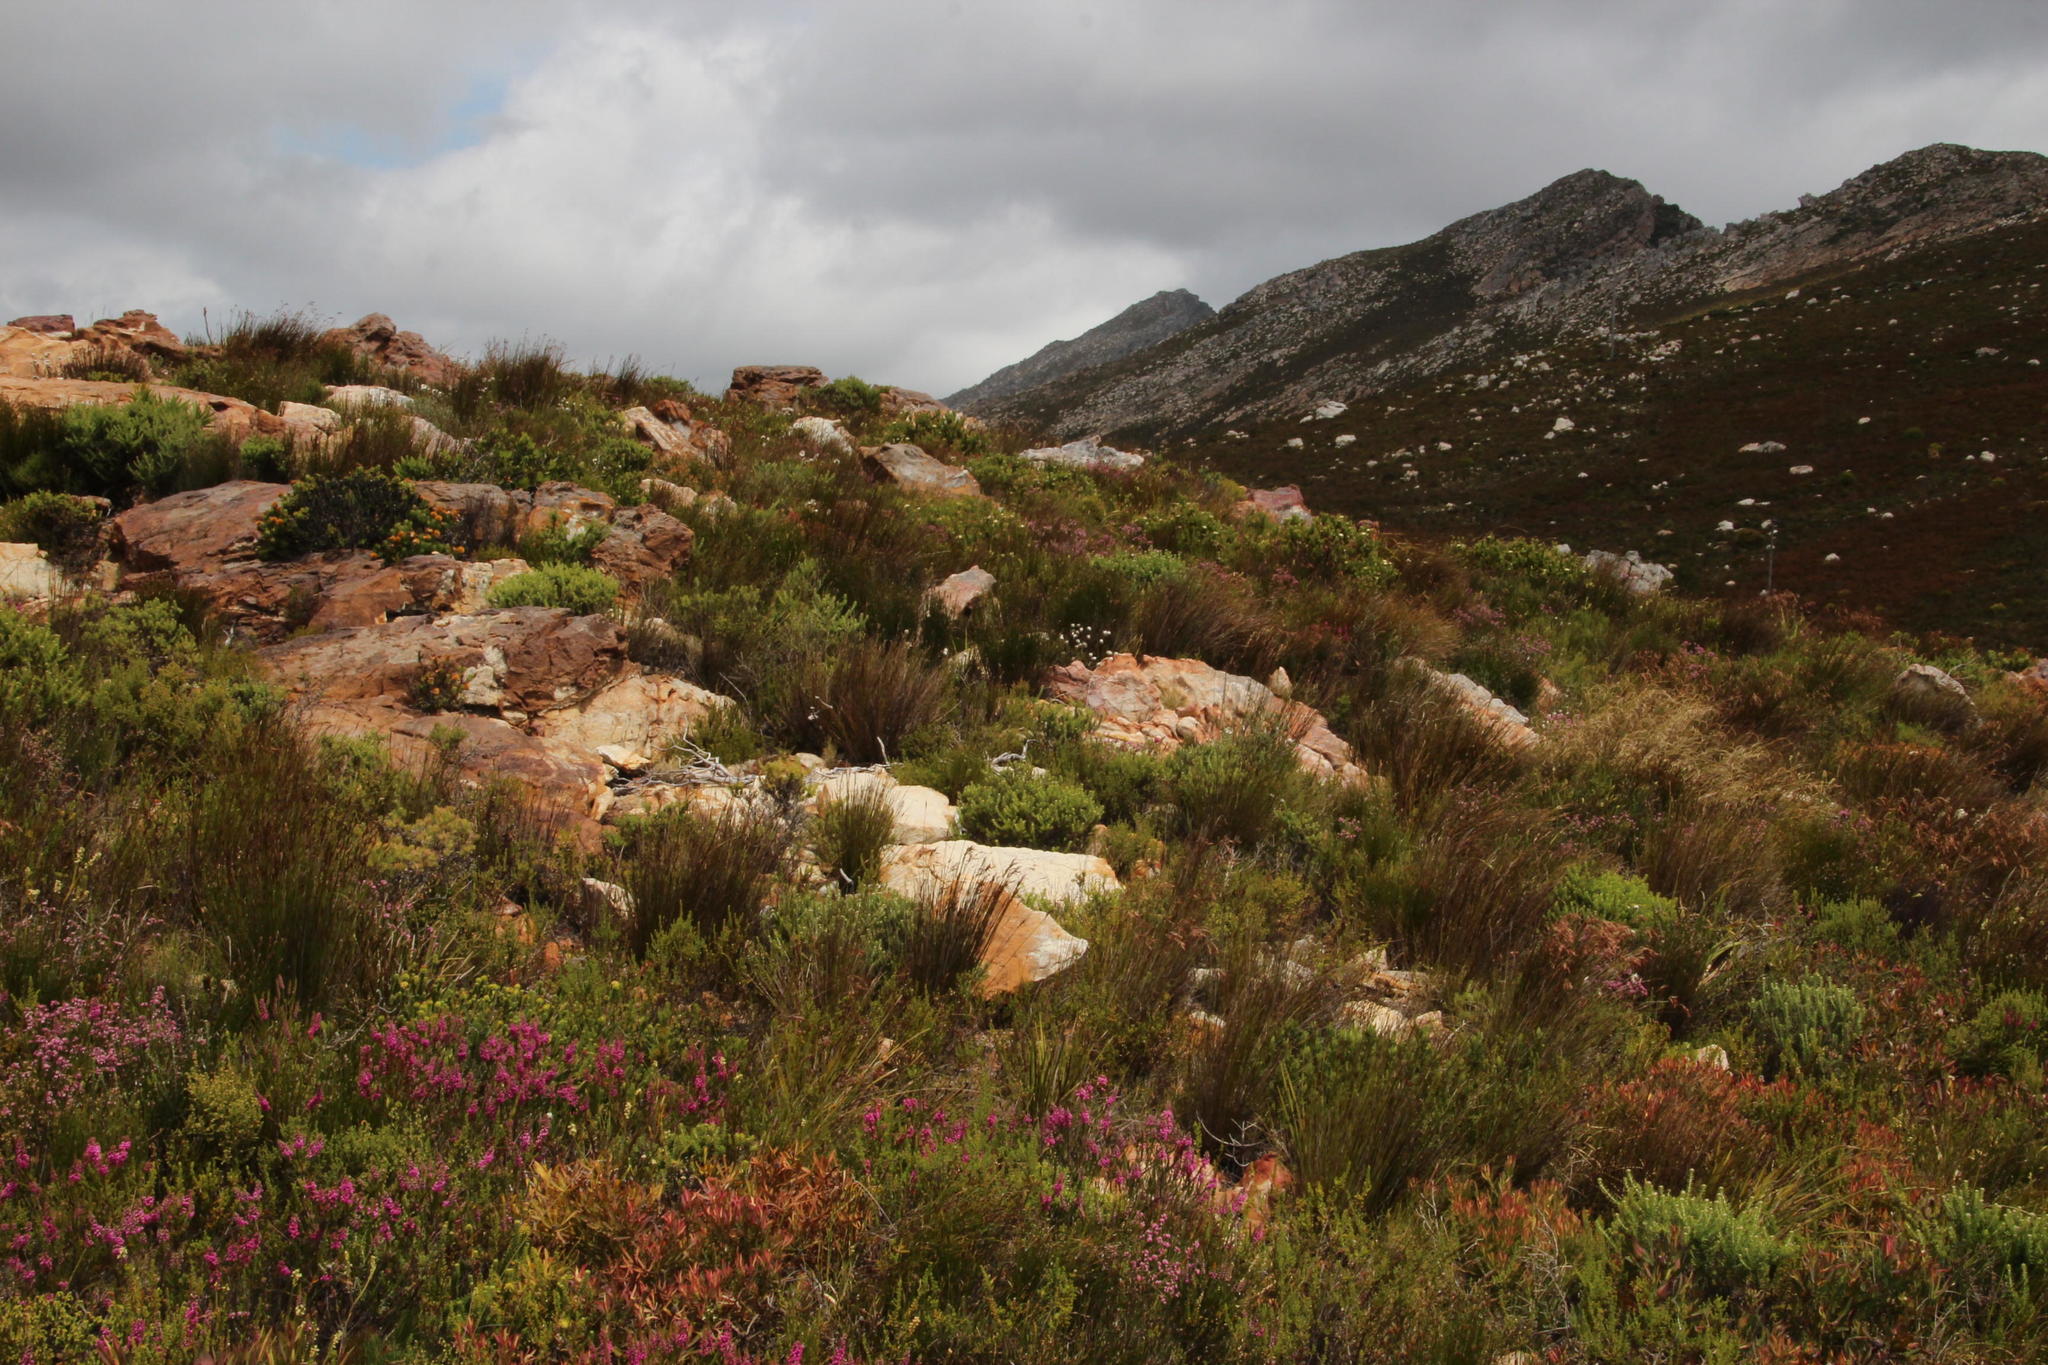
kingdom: Plantae
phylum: Tracheophyta
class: Magnoliopsida
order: Proteales
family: Proteaceae
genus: Diastella
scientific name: Diastella thymelaeoides
